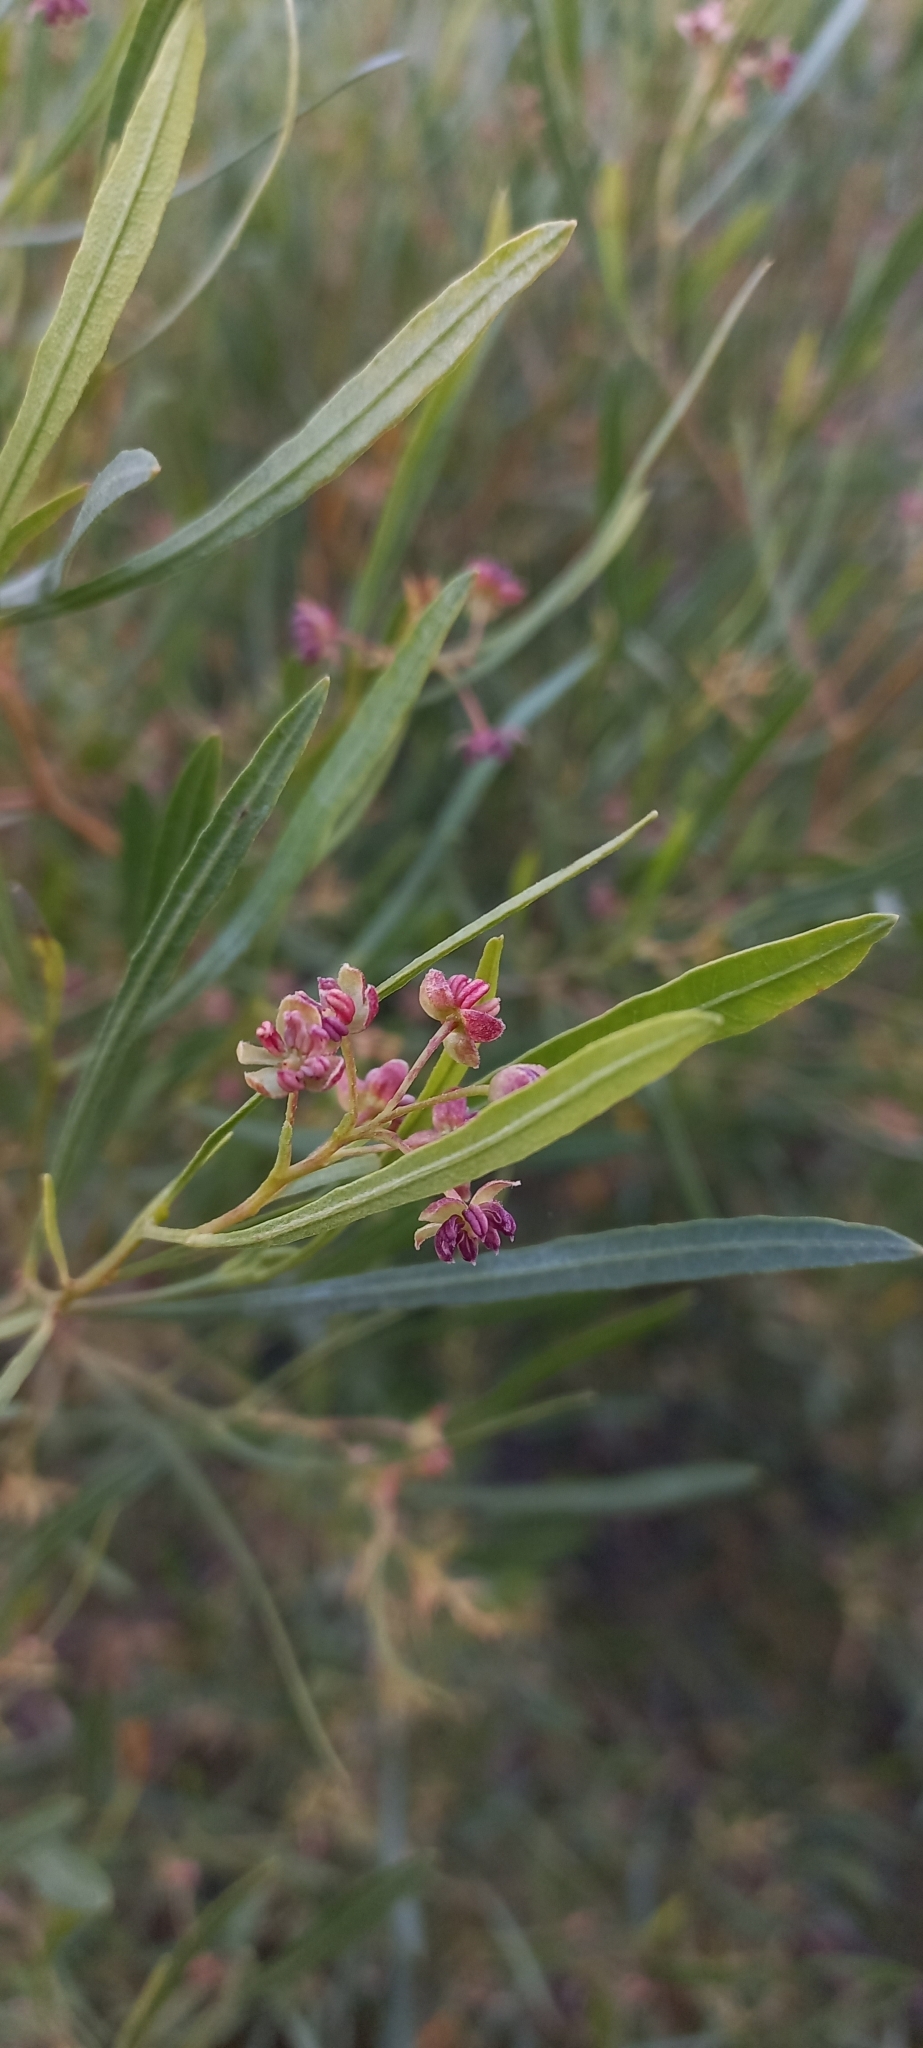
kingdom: Plantae
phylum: Tracheophyta
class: Magnoliopsida
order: Sapindales
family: Sapindaceae
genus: Dodonaea
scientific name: Dodonaea viscosa
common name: Hopbush
